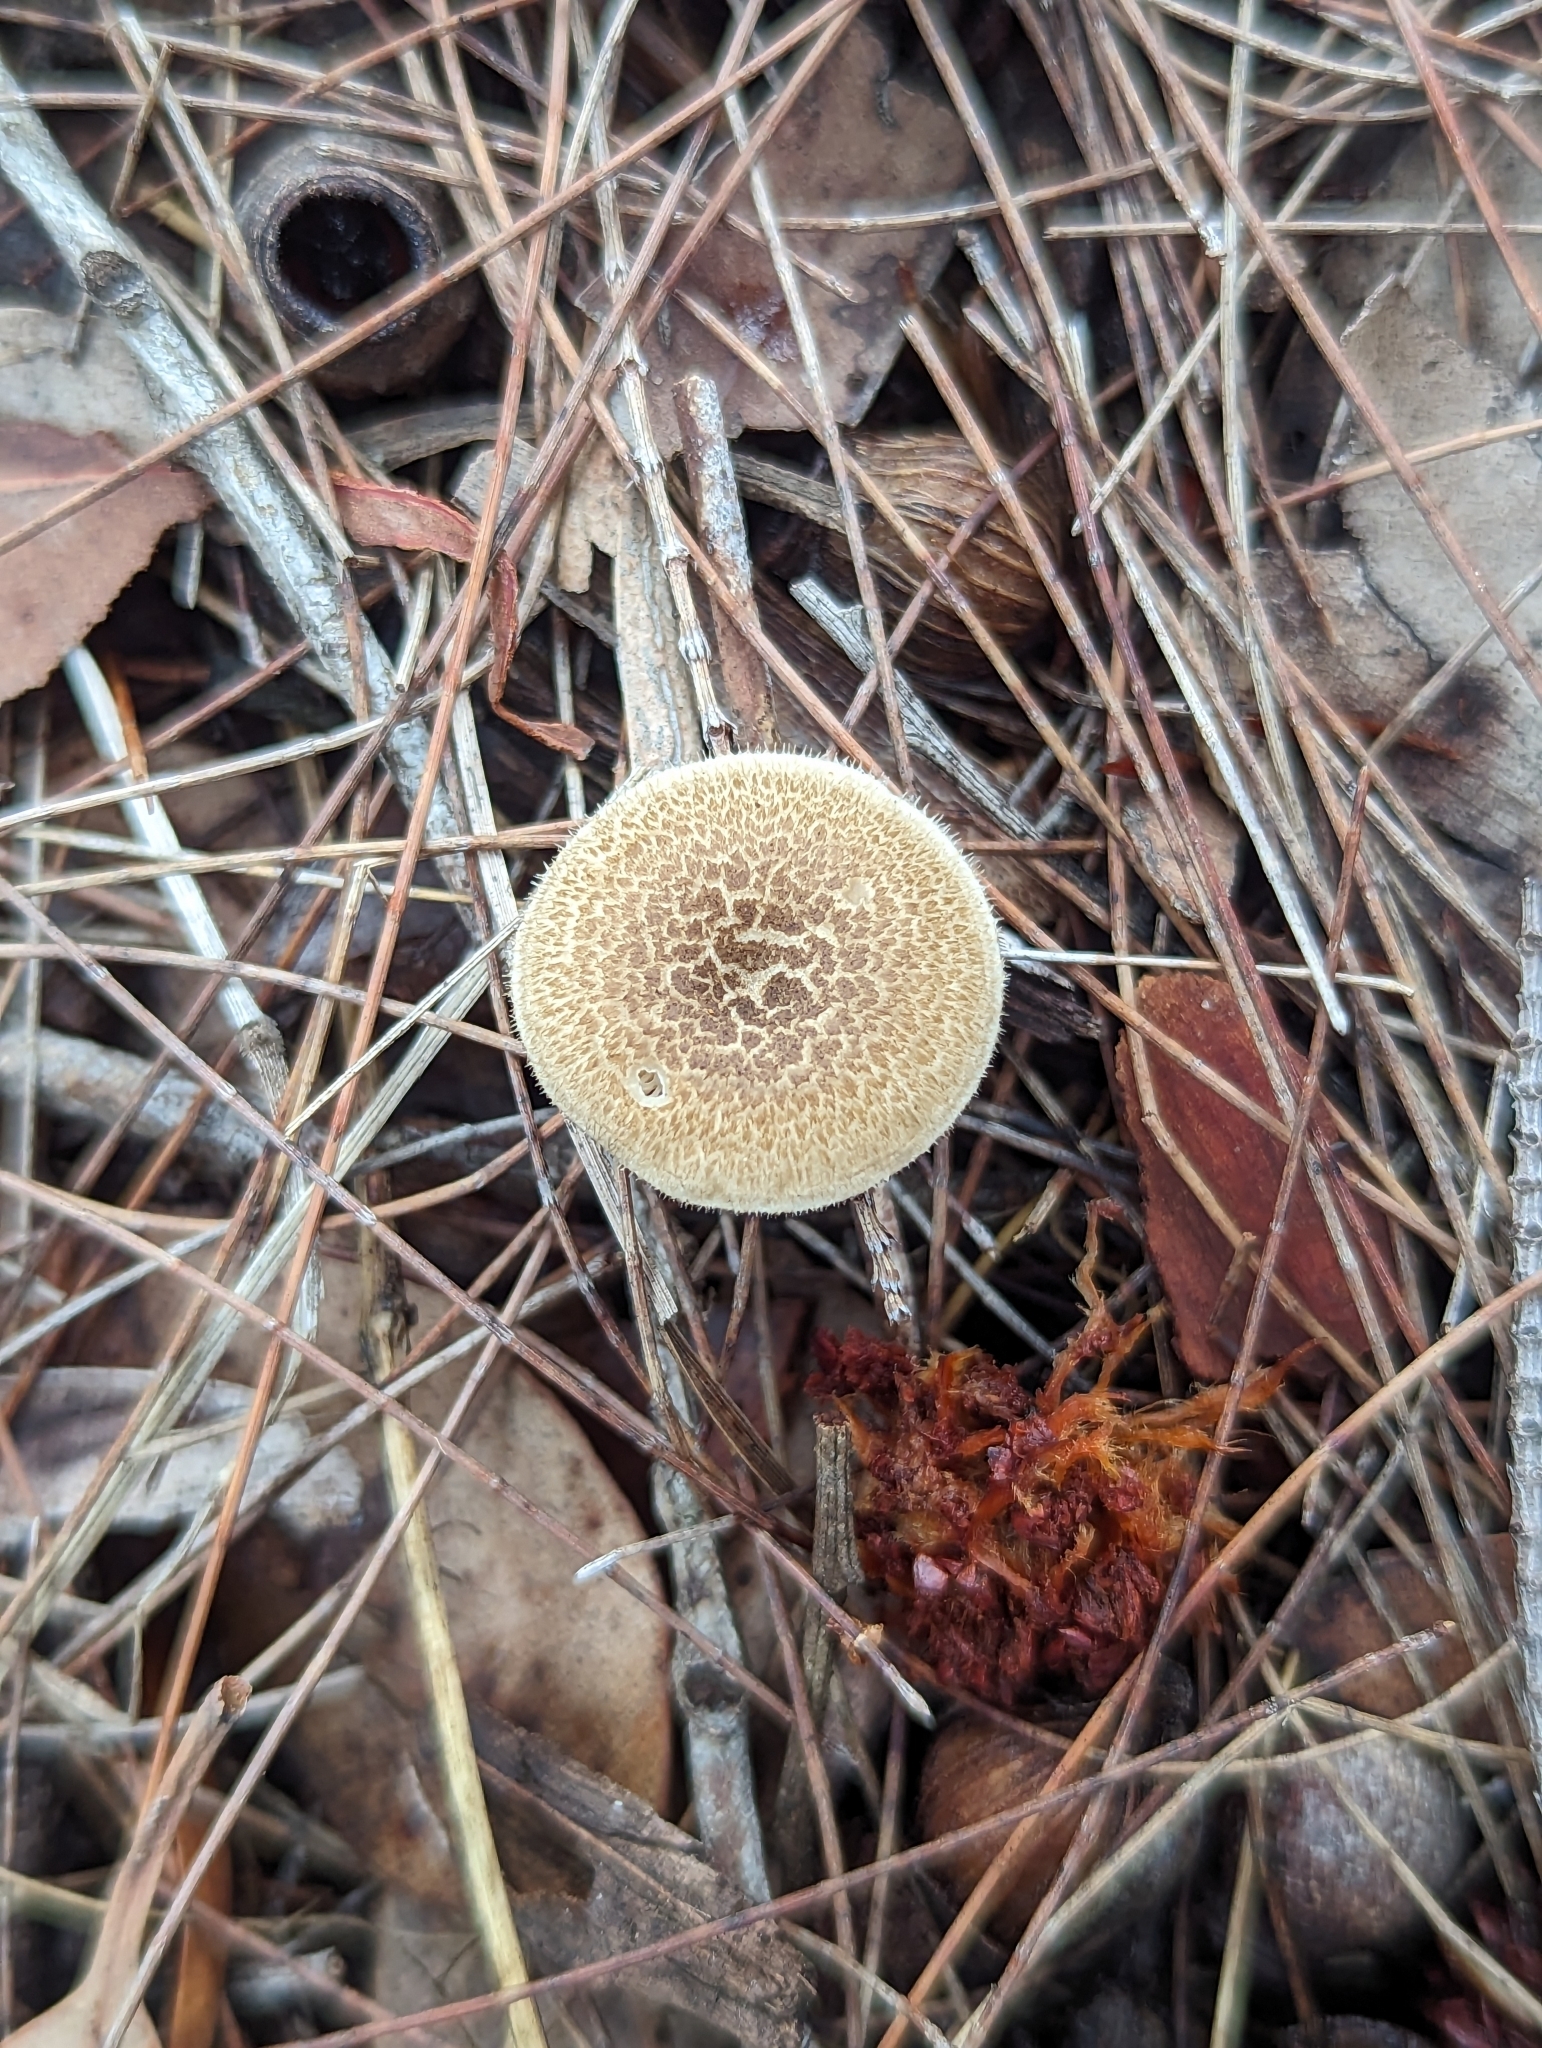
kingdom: Fungi
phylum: Basidiomycota
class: Agaricomycetes
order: Polyporales
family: Polyporaceae
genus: Lentinus
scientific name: Lentinus arcularius
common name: Spring polypore
